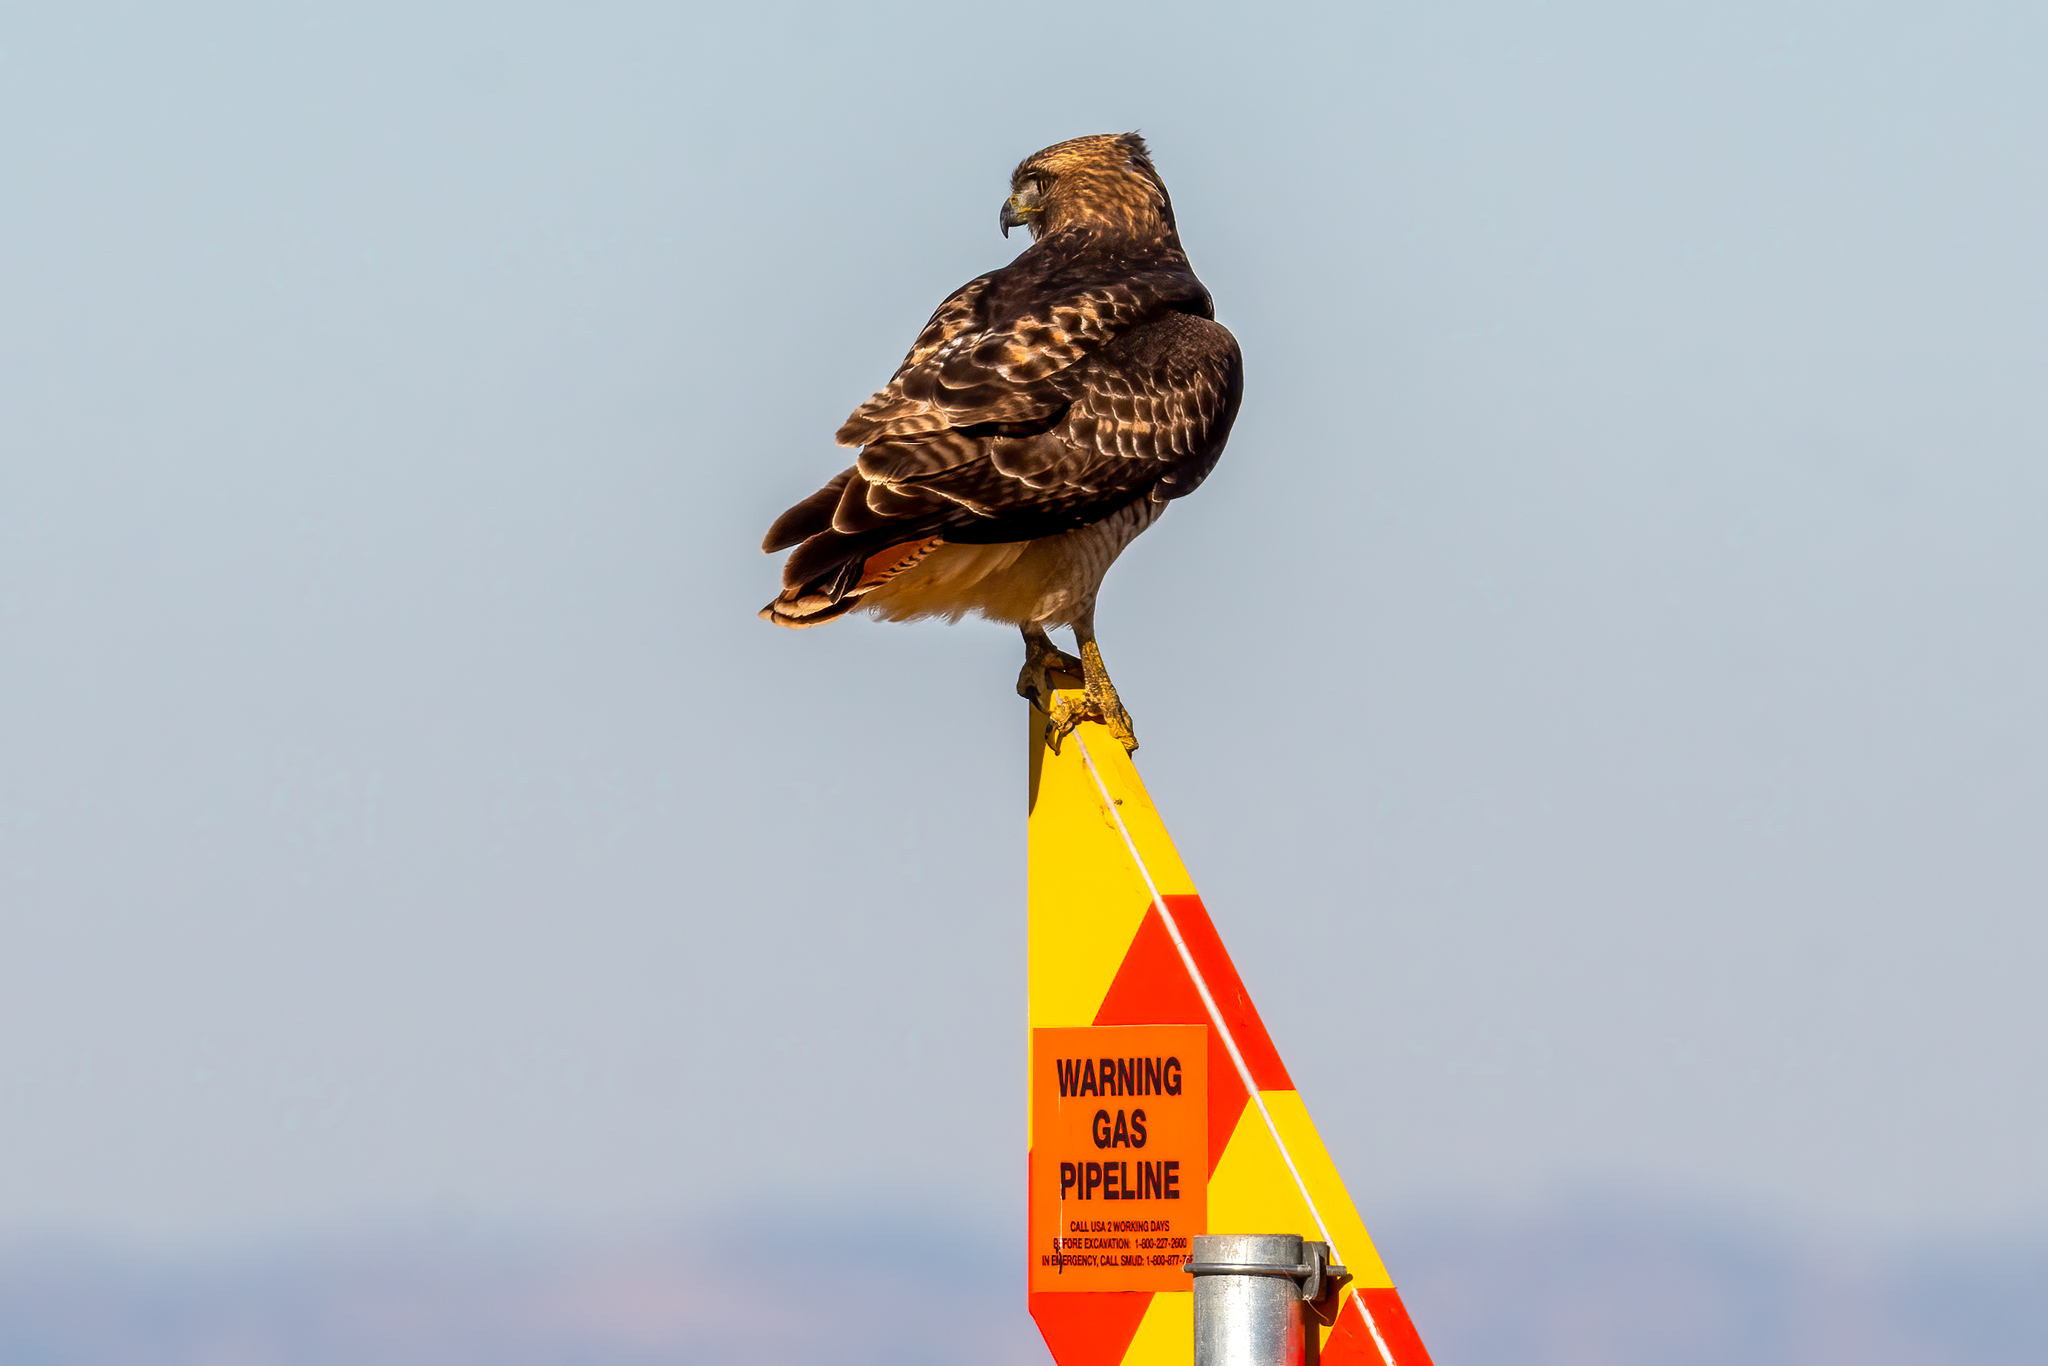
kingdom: Animalia
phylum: Chordata
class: Aves
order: Accipitriformes
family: Accipitridae
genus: Buteo
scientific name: Buteo jamaicensis
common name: Red-tailed hawk
